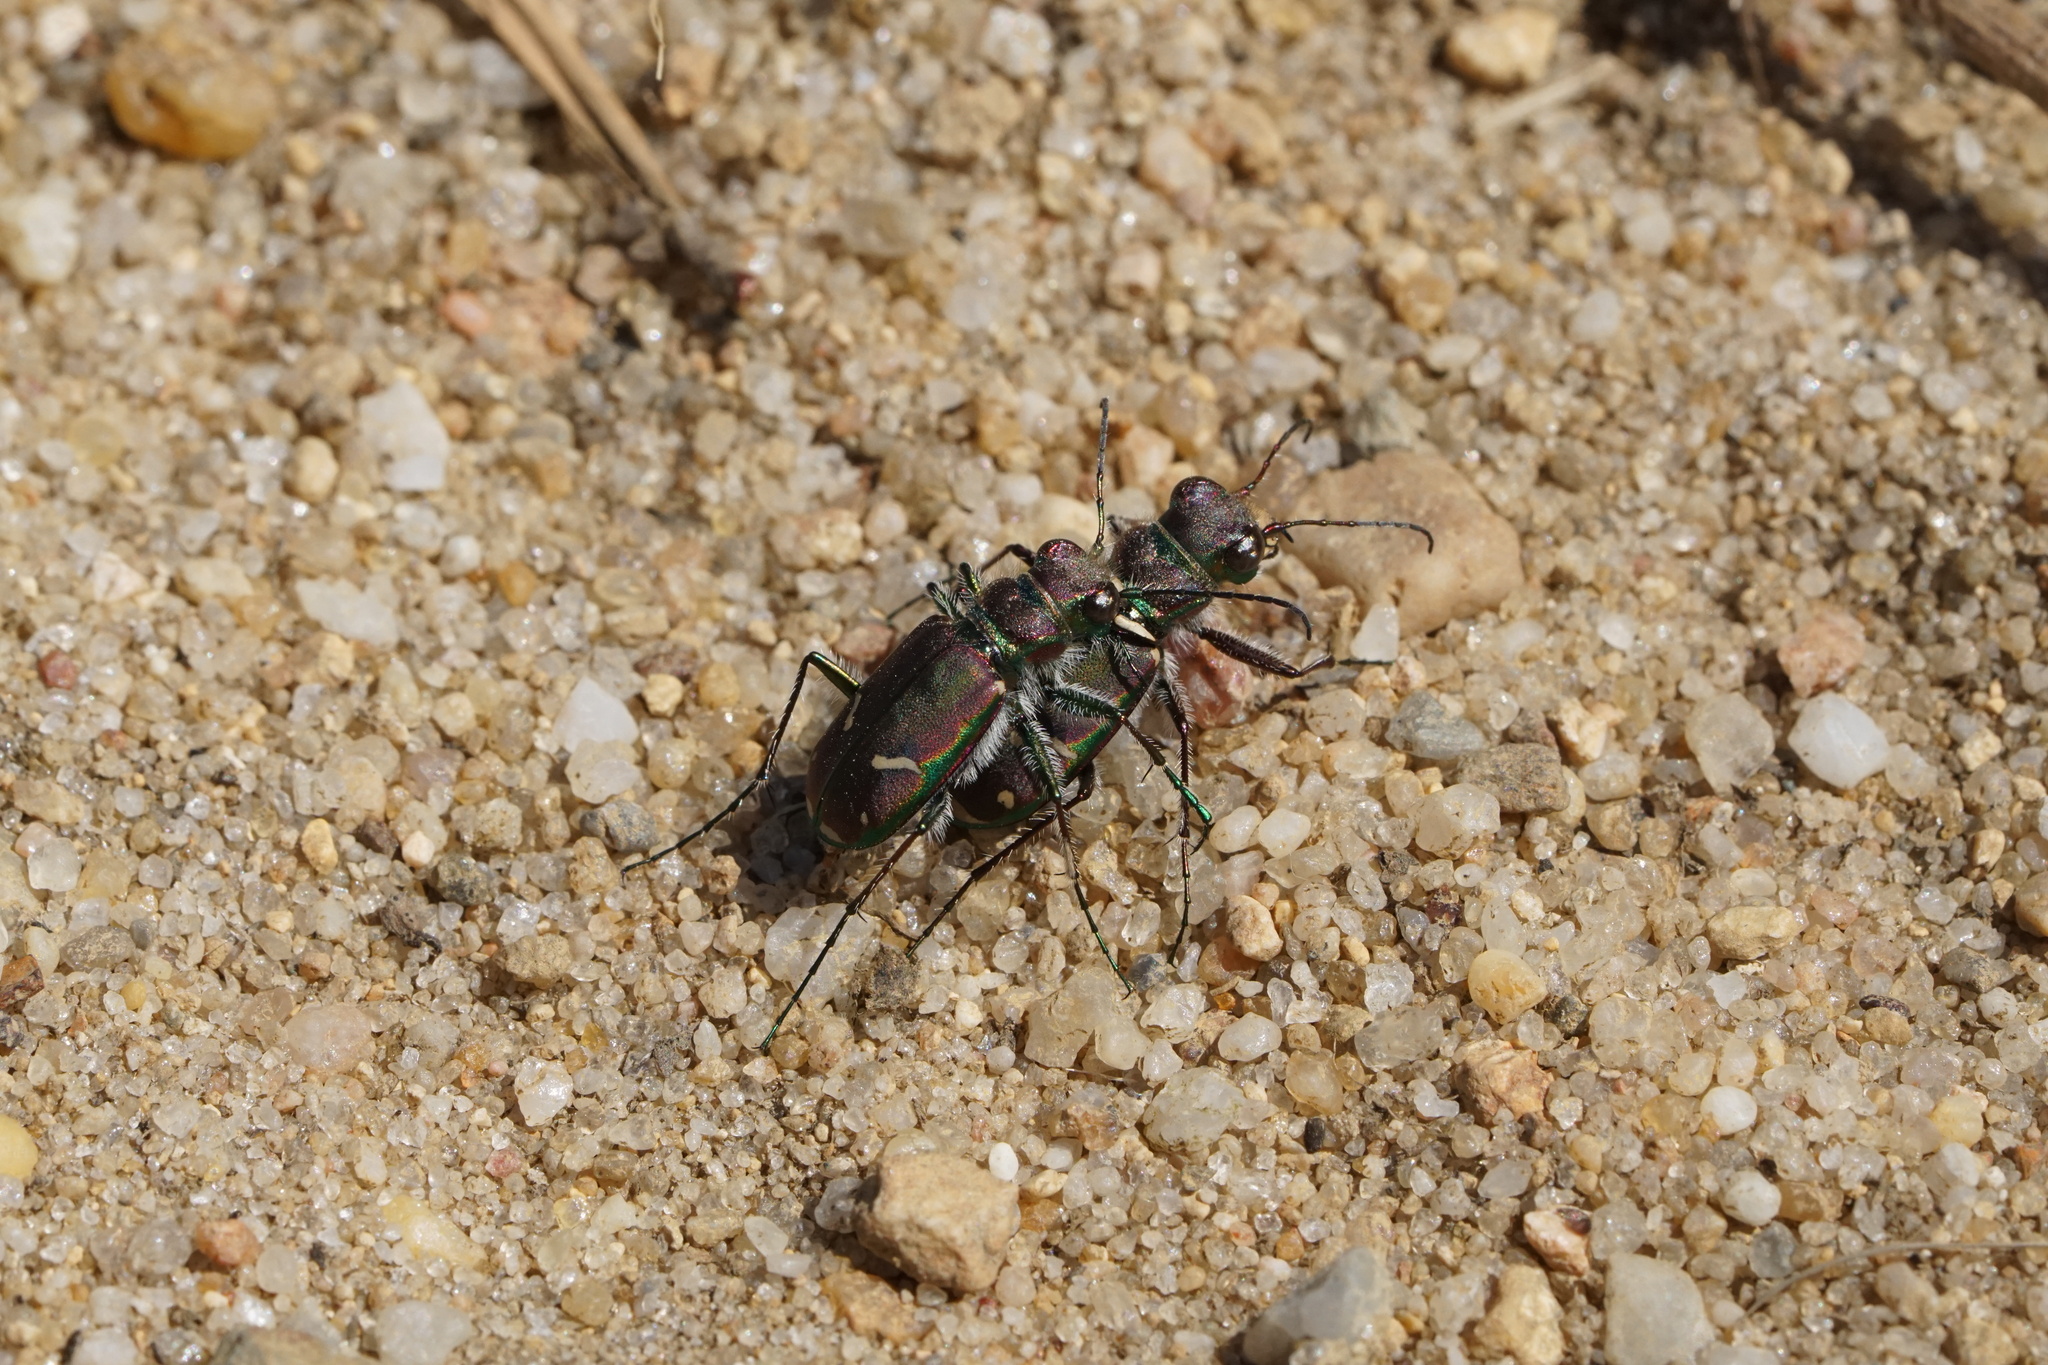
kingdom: Animalia
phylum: Arthropoda
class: Insecta
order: Coleoptera
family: Carabidae
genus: Cicindela
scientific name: Cicindela purpurea
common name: Cow path tiger beetle
